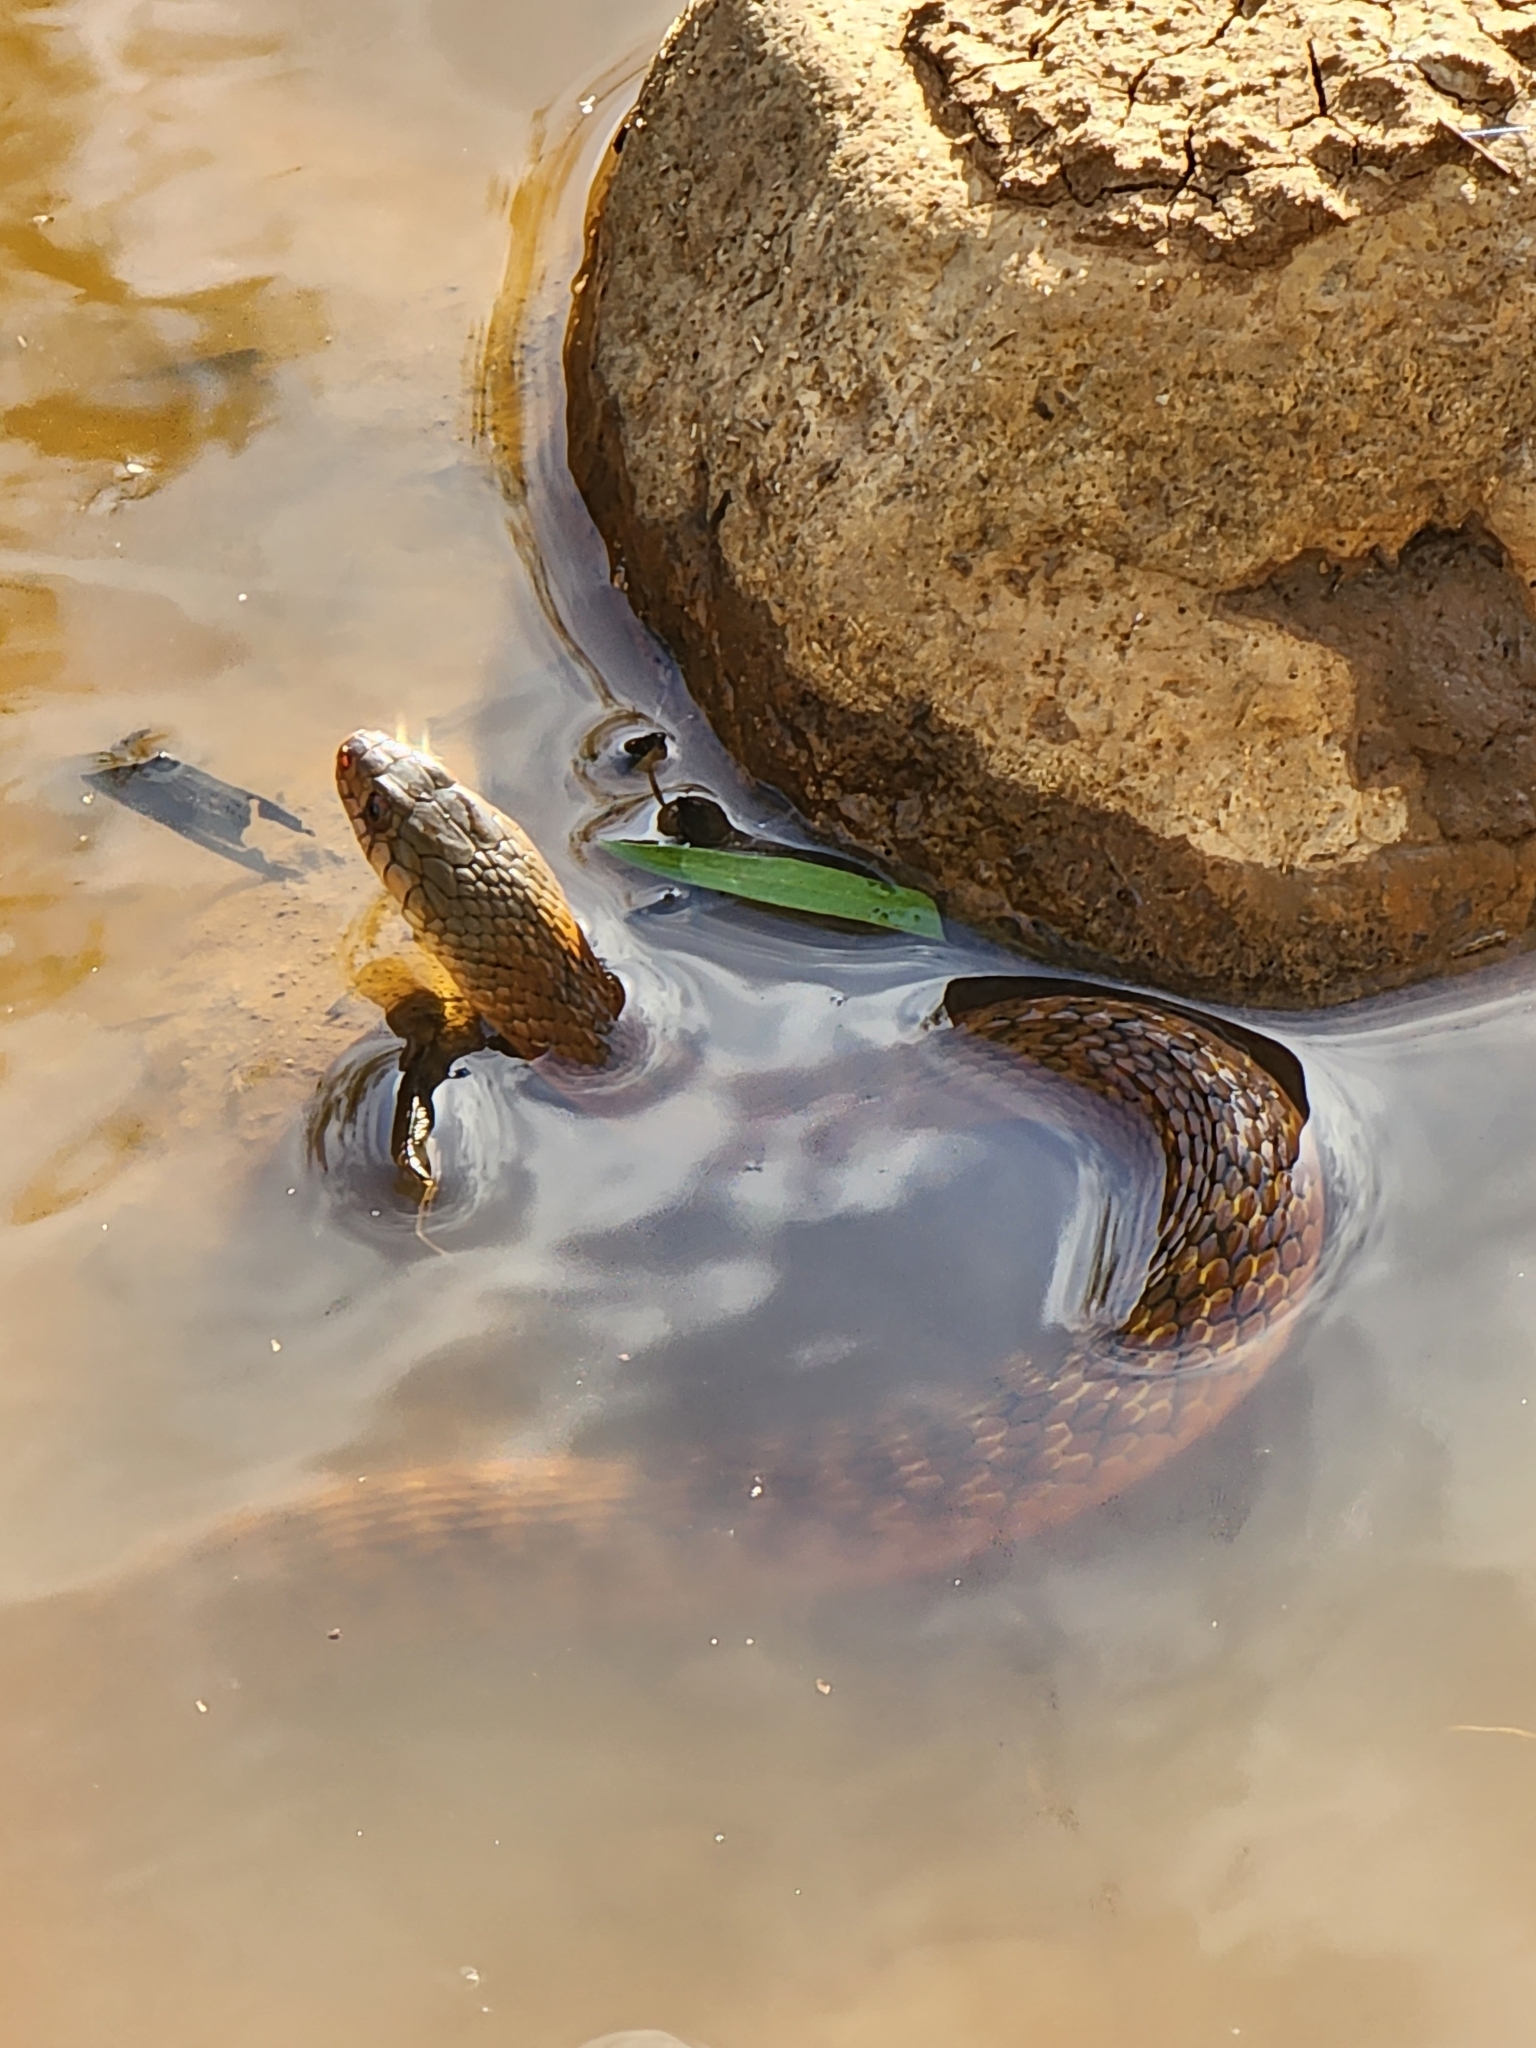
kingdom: Animalia
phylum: Chordata
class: Squamata
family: Colubridae
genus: Tropidonophis
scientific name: Tropidonophis mairii
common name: Common keelback
